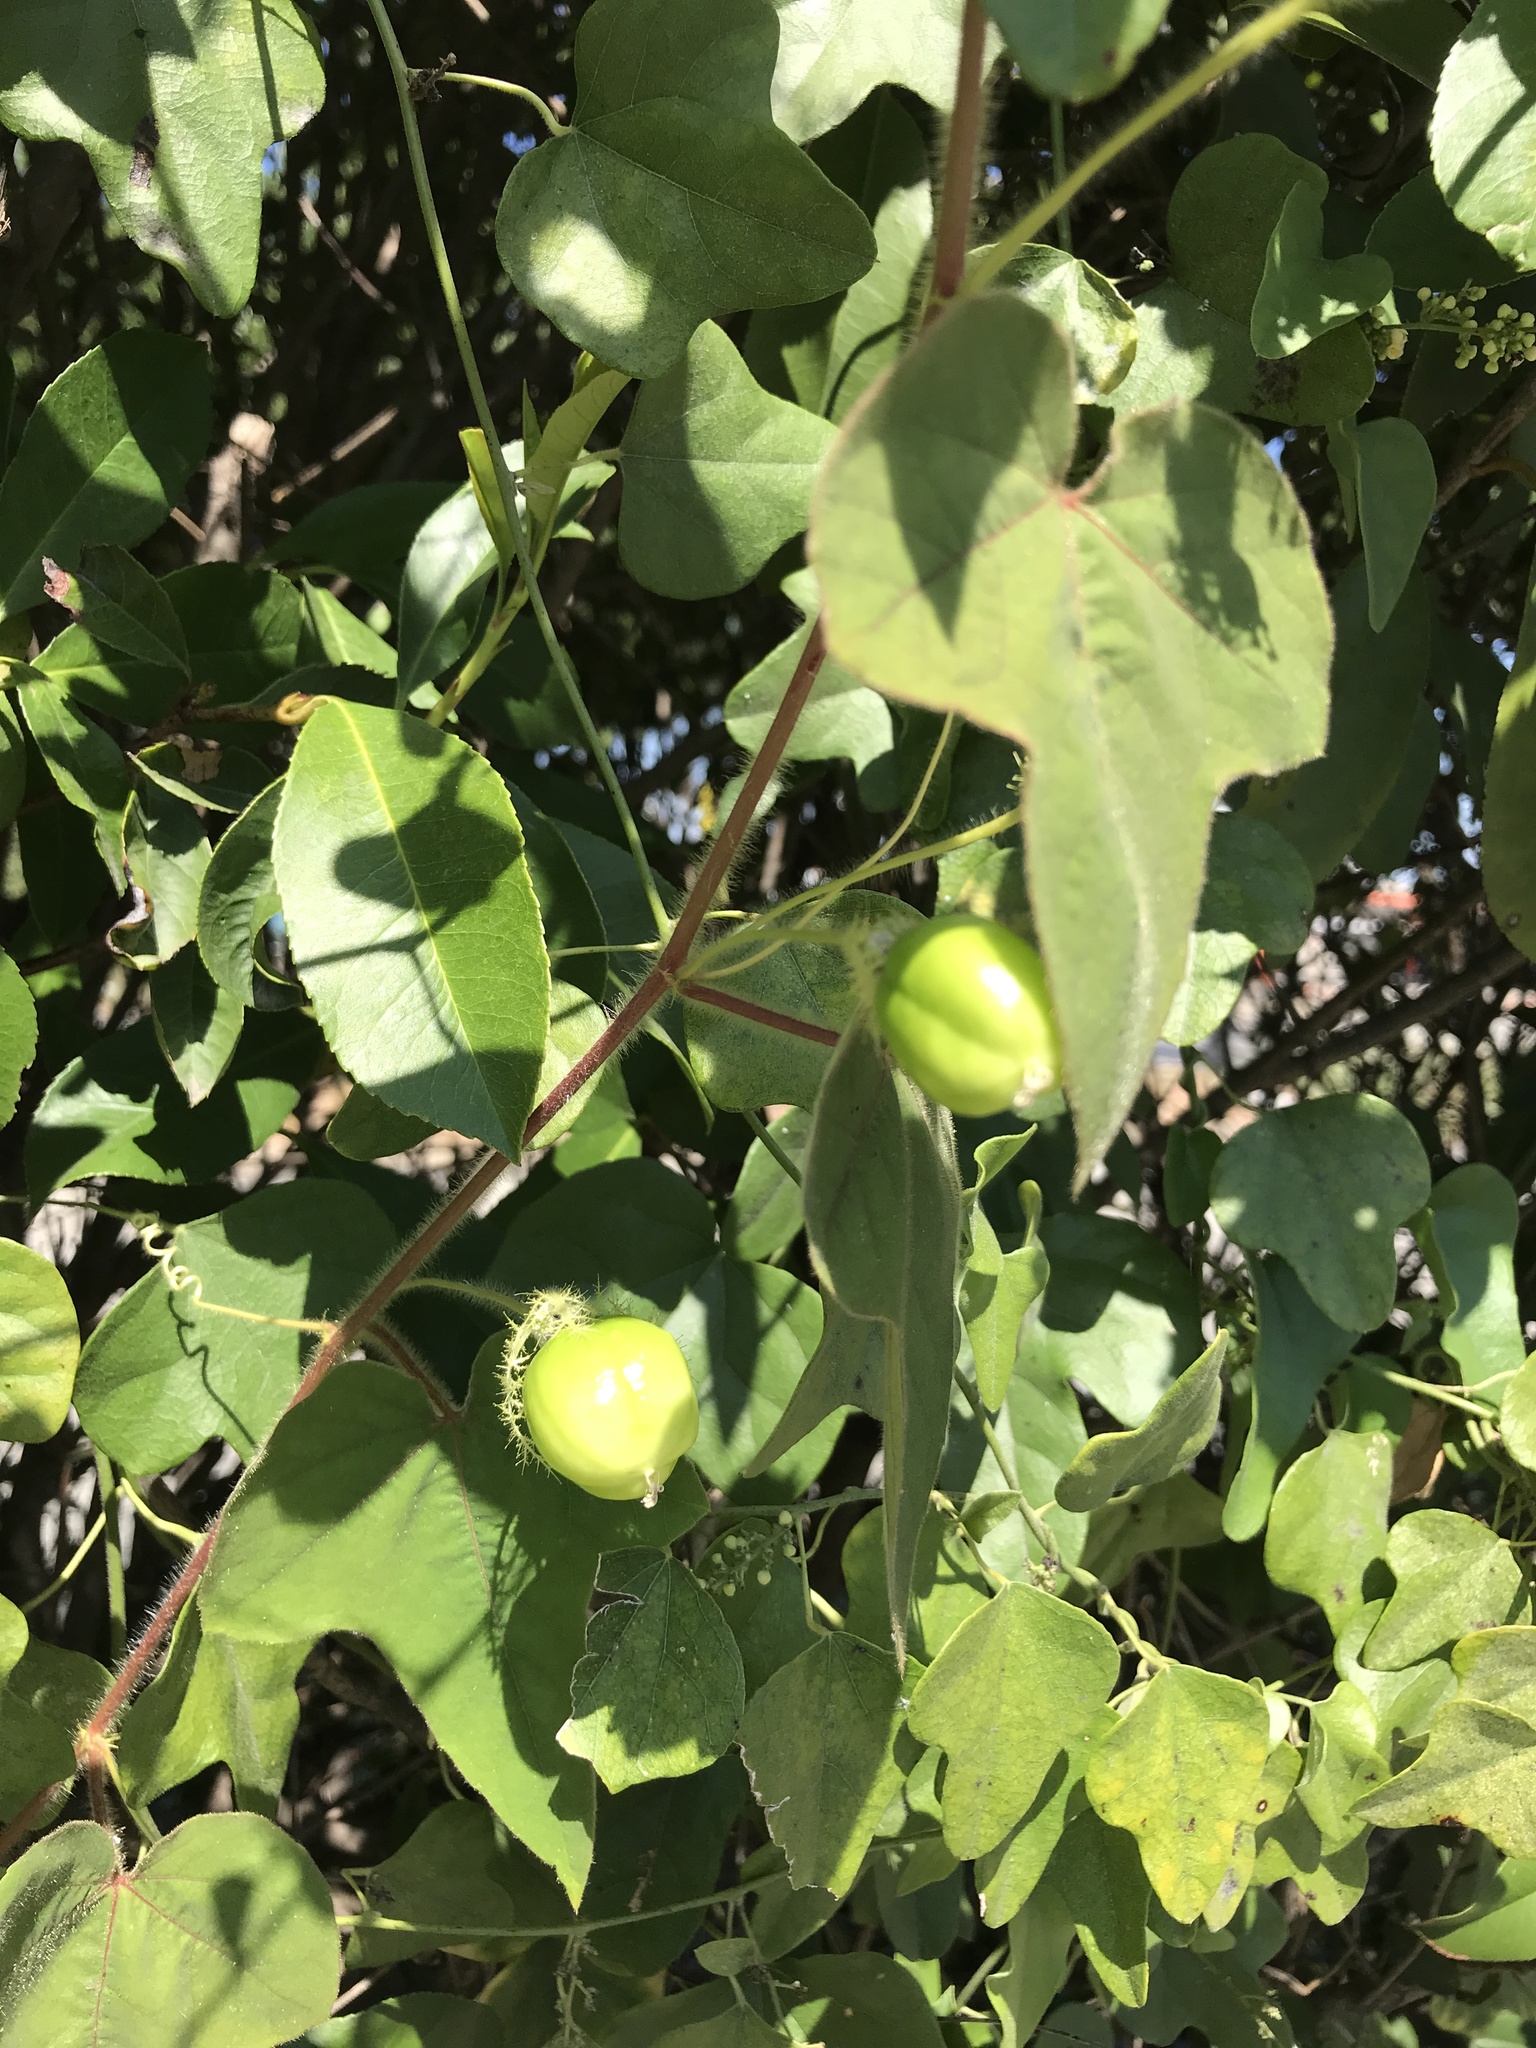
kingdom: Plantae
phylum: Tracheophyta
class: Magnoliopsida
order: Malpighiales
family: Passifloraceae
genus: Passiflora
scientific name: Passiflora foetida
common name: Fetid passionflower
